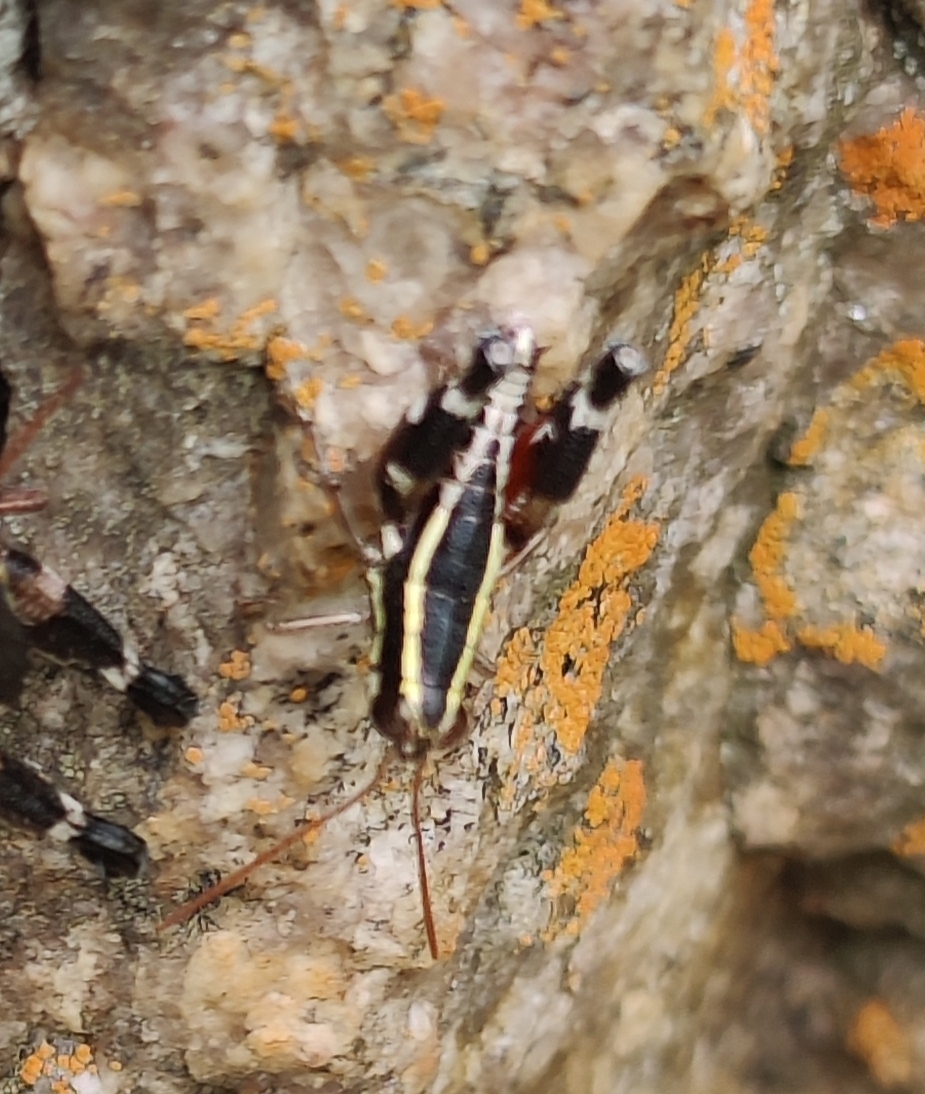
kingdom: Animalia
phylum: Arthropoda
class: Insecta
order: Orthoptera
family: Acrididae
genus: Opharicus
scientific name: Opharicus ballardi
